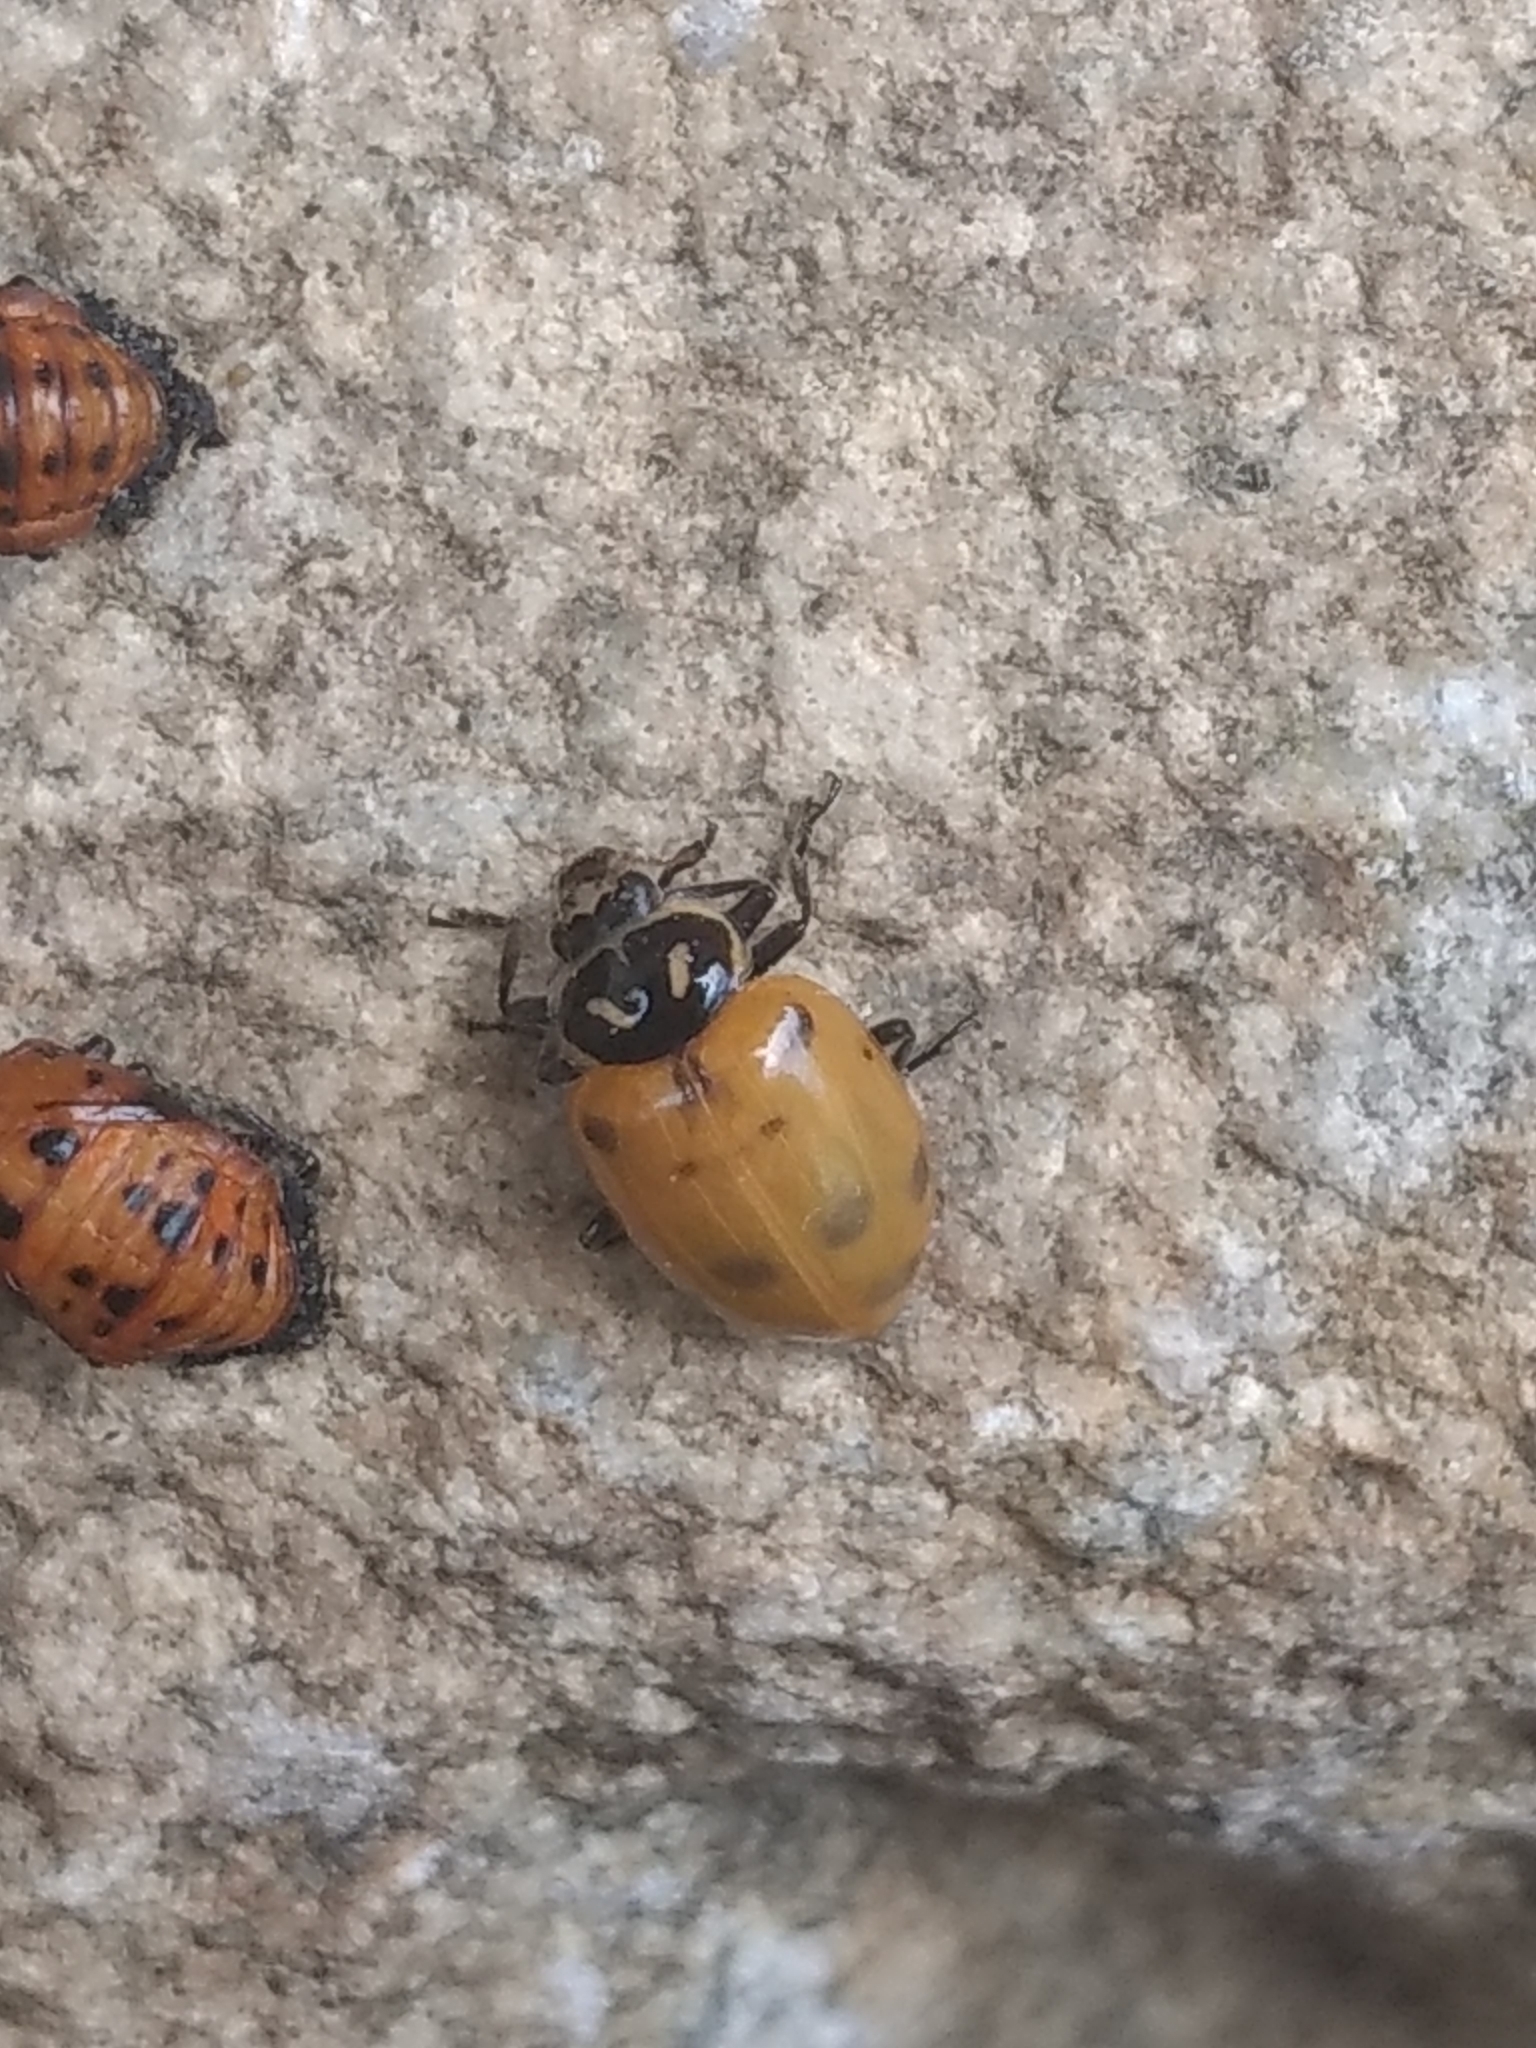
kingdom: Animalia
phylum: Arthropoda
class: Insecta
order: Coleoptera
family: Coccinellidae
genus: Hippodamia
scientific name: Hippodamia convergens
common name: Convergent lady beetle
